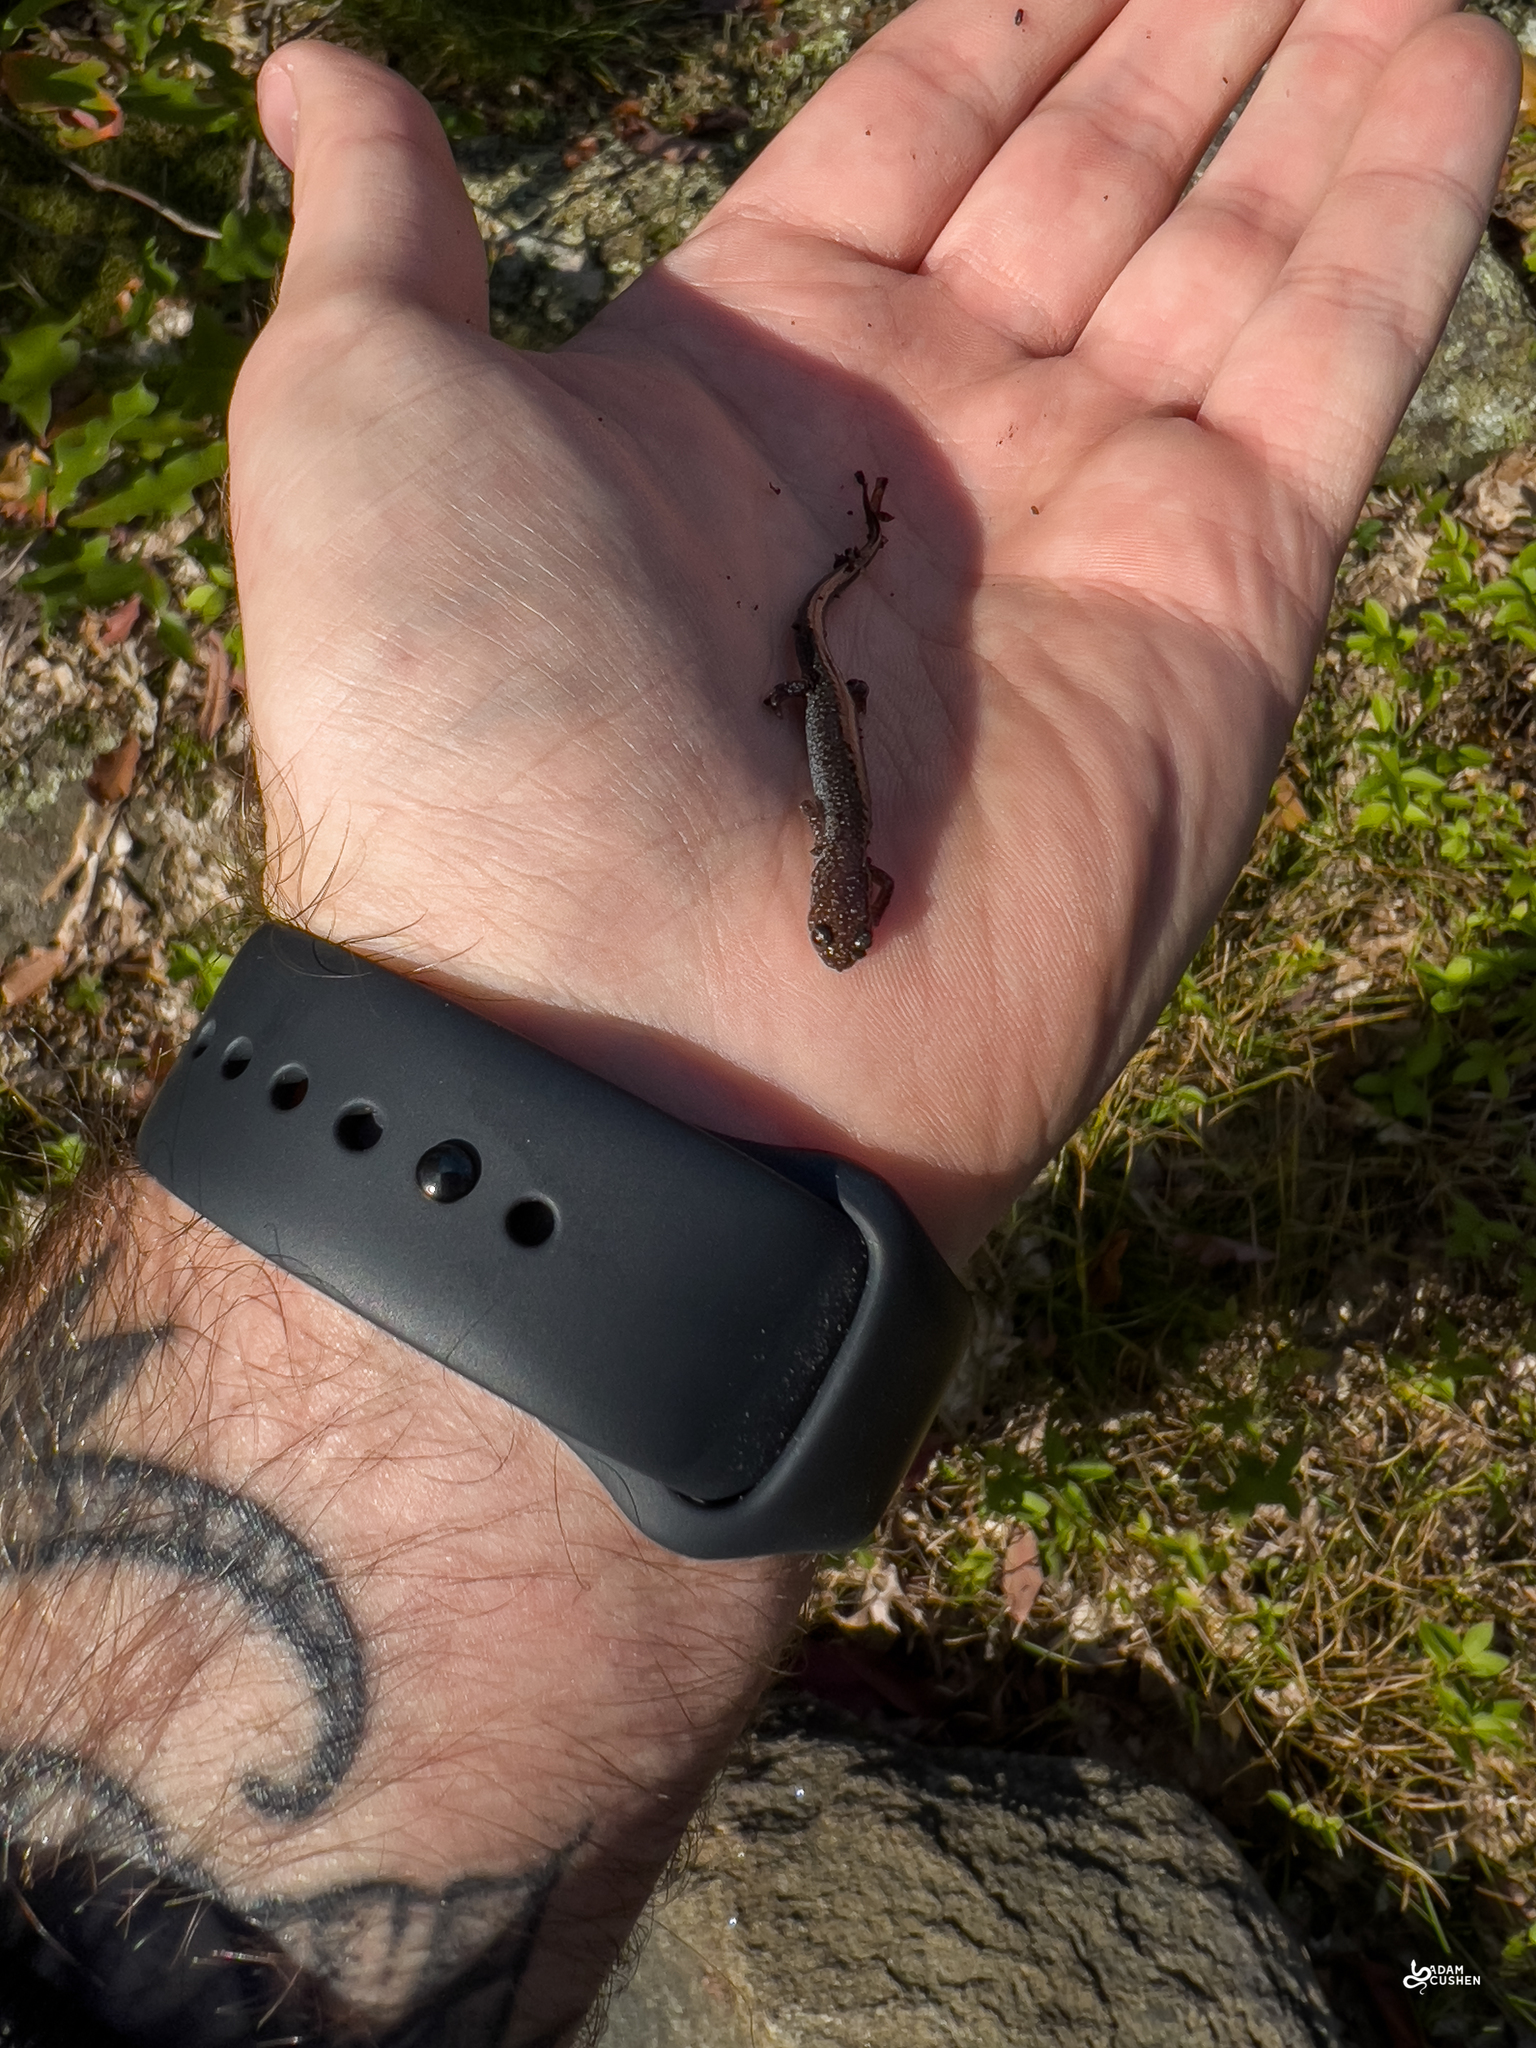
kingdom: Animalia
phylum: Chordata
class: Amphibia
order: Caudata
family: Plethodontidae
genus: Plethodon
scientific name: Plethodon cinereus
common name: Redback salamander
